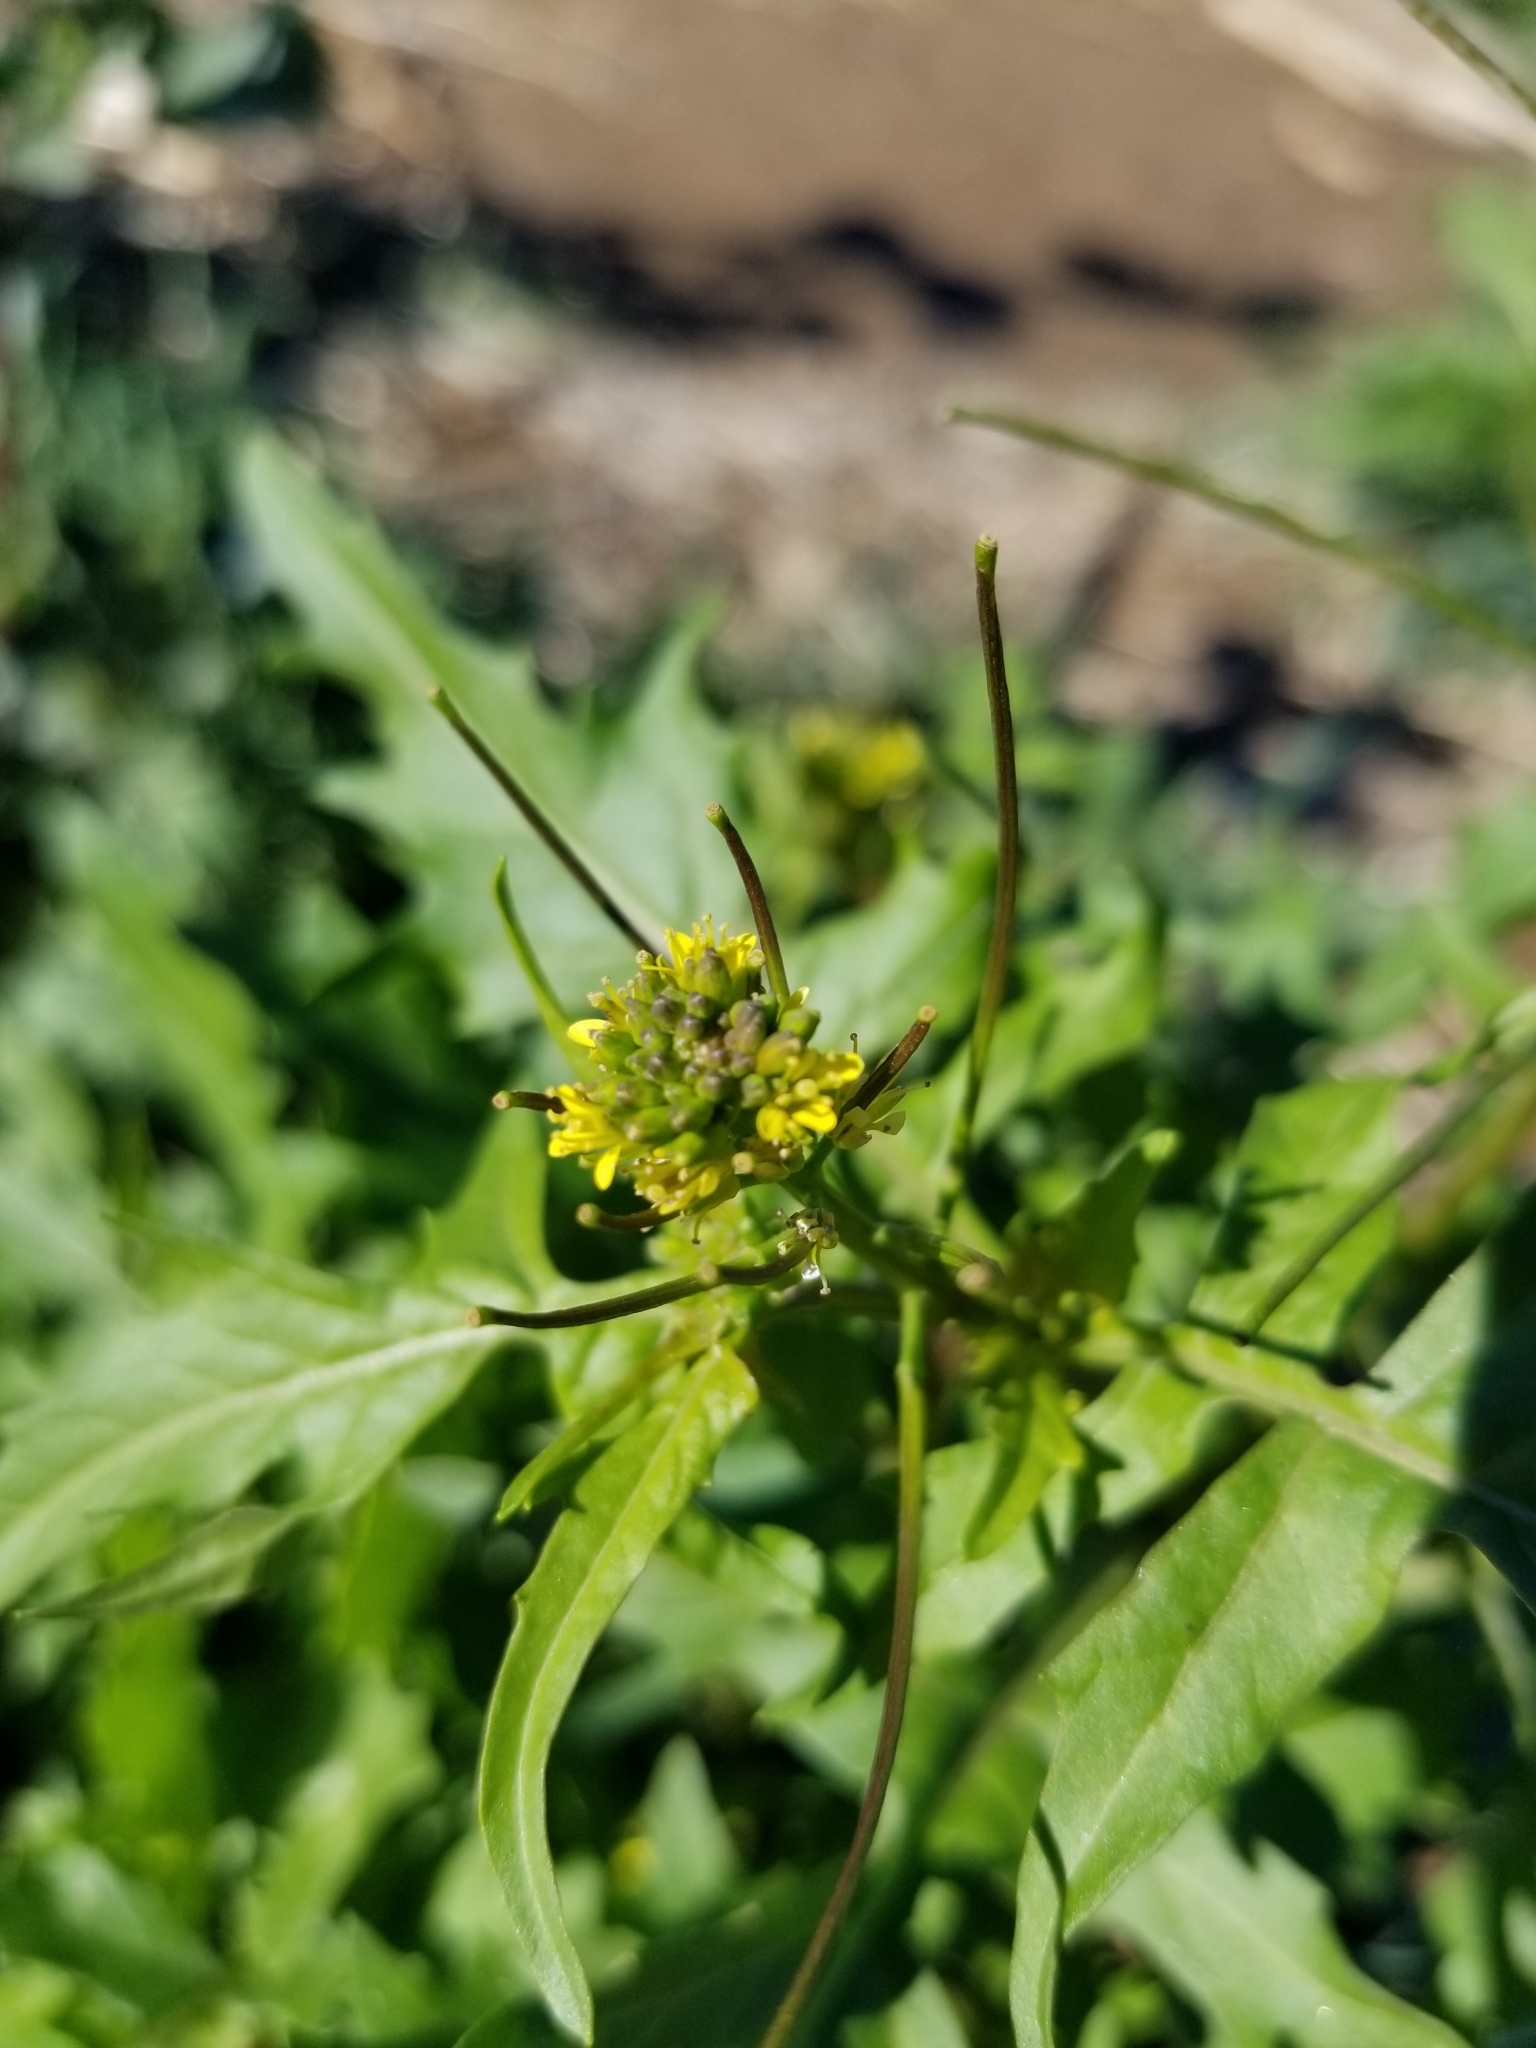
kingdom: Plantae
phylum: Tracheophyta
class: Magnoliopsida
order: Brassicales
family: Brassicaceae
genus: Sisymbrium
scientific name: Sisymbrium irio
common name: London rocket
